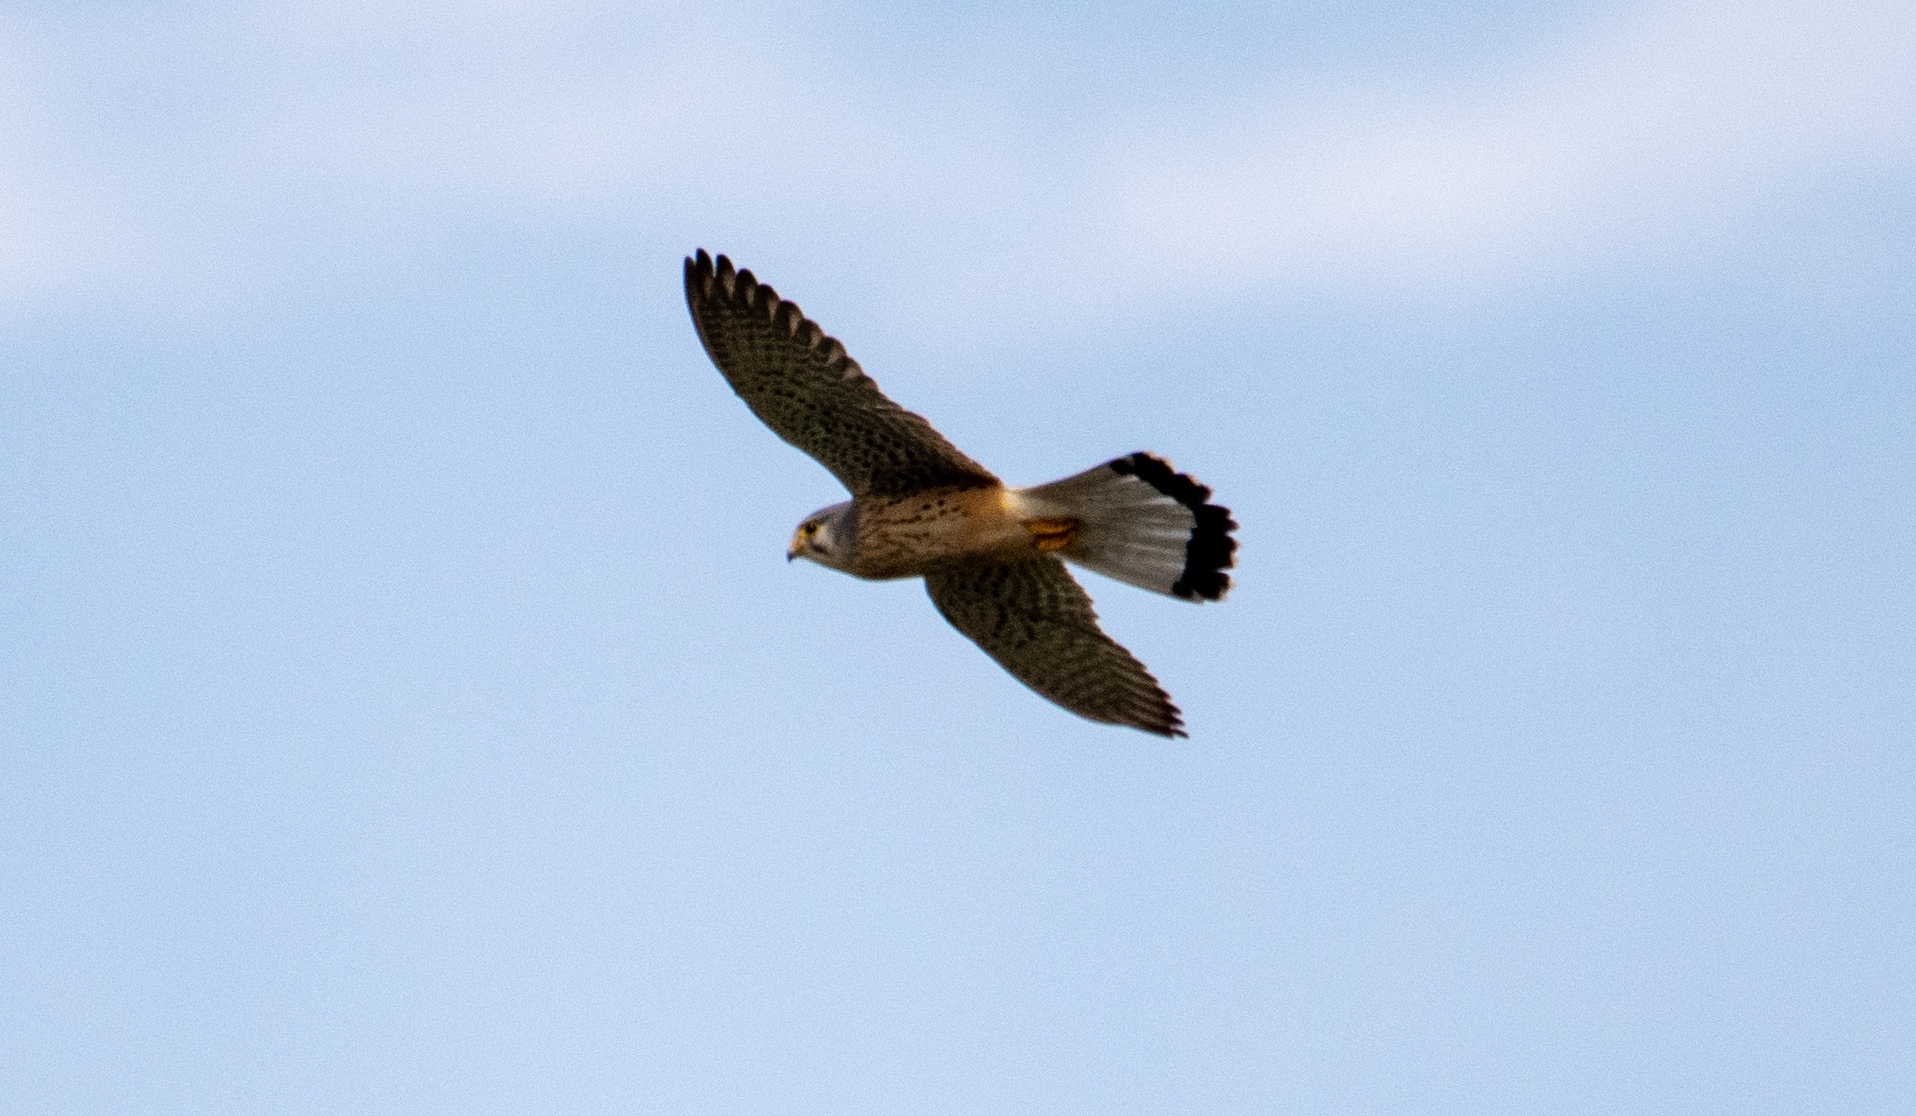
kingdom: Animalia
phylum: Chordata
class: Aves
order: Falconiformes
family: Falconidae
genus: Falco
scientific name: Falco tinnunculus
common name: Common kestrel
